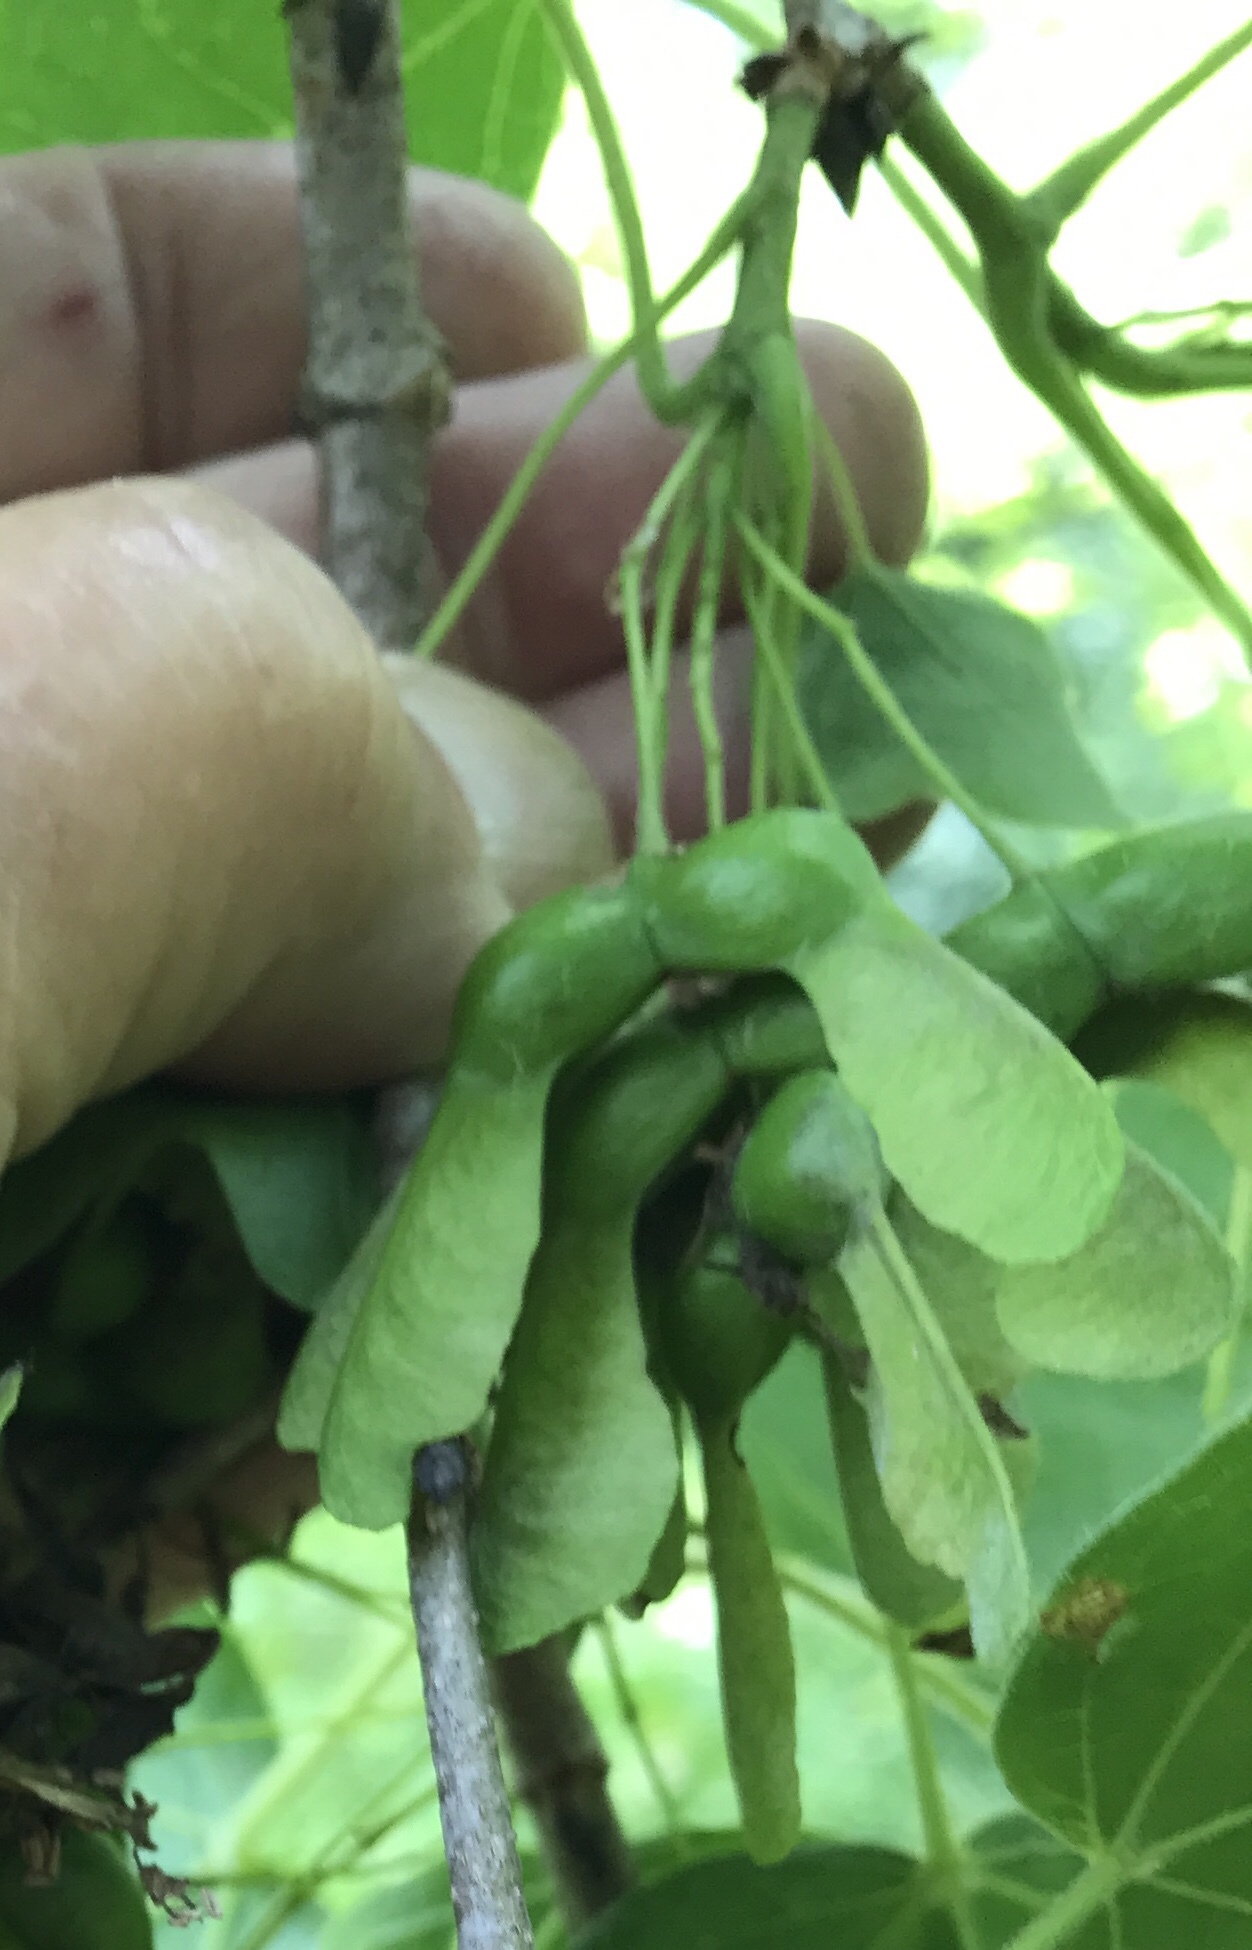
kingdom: Plantae
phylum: Tracheophyta
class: Magnoliopsida
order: Sapindales
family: Sapindaceae
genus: Acer
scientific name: Acer nigrum
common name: Black maple
